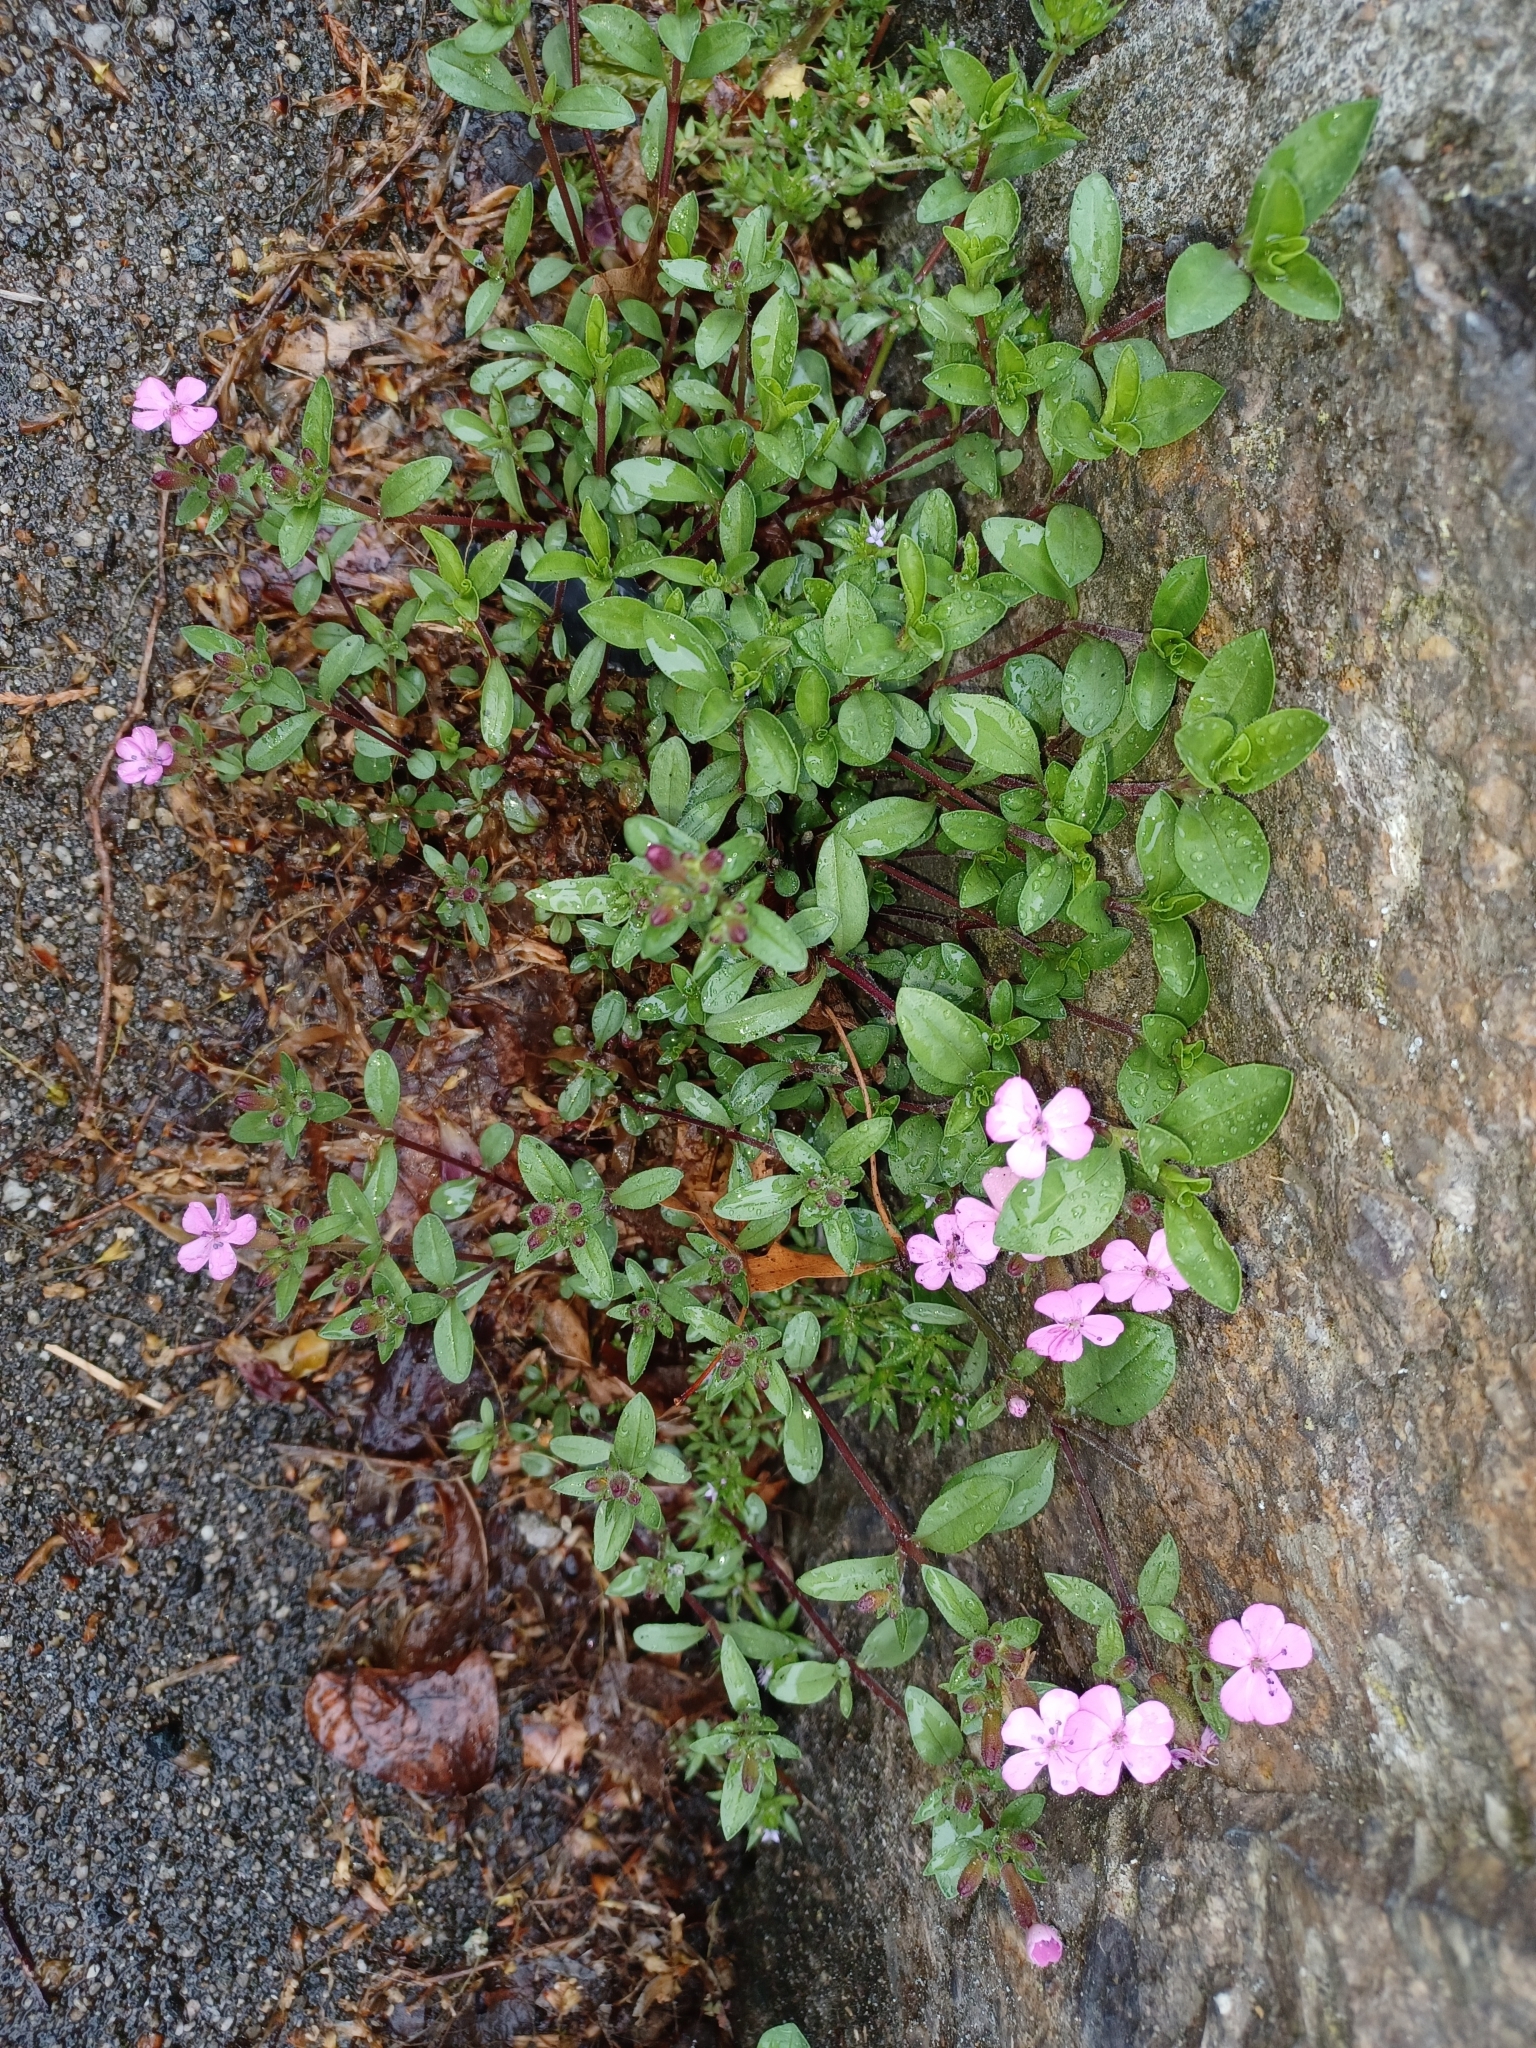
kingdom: Plantae
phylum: Tracheophyta
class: Magnoliopsida
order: Caryophyllales
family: Caryophyllaceae
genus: Saponaria
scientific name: Saponaria ocymoides
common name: Rock soapwort
